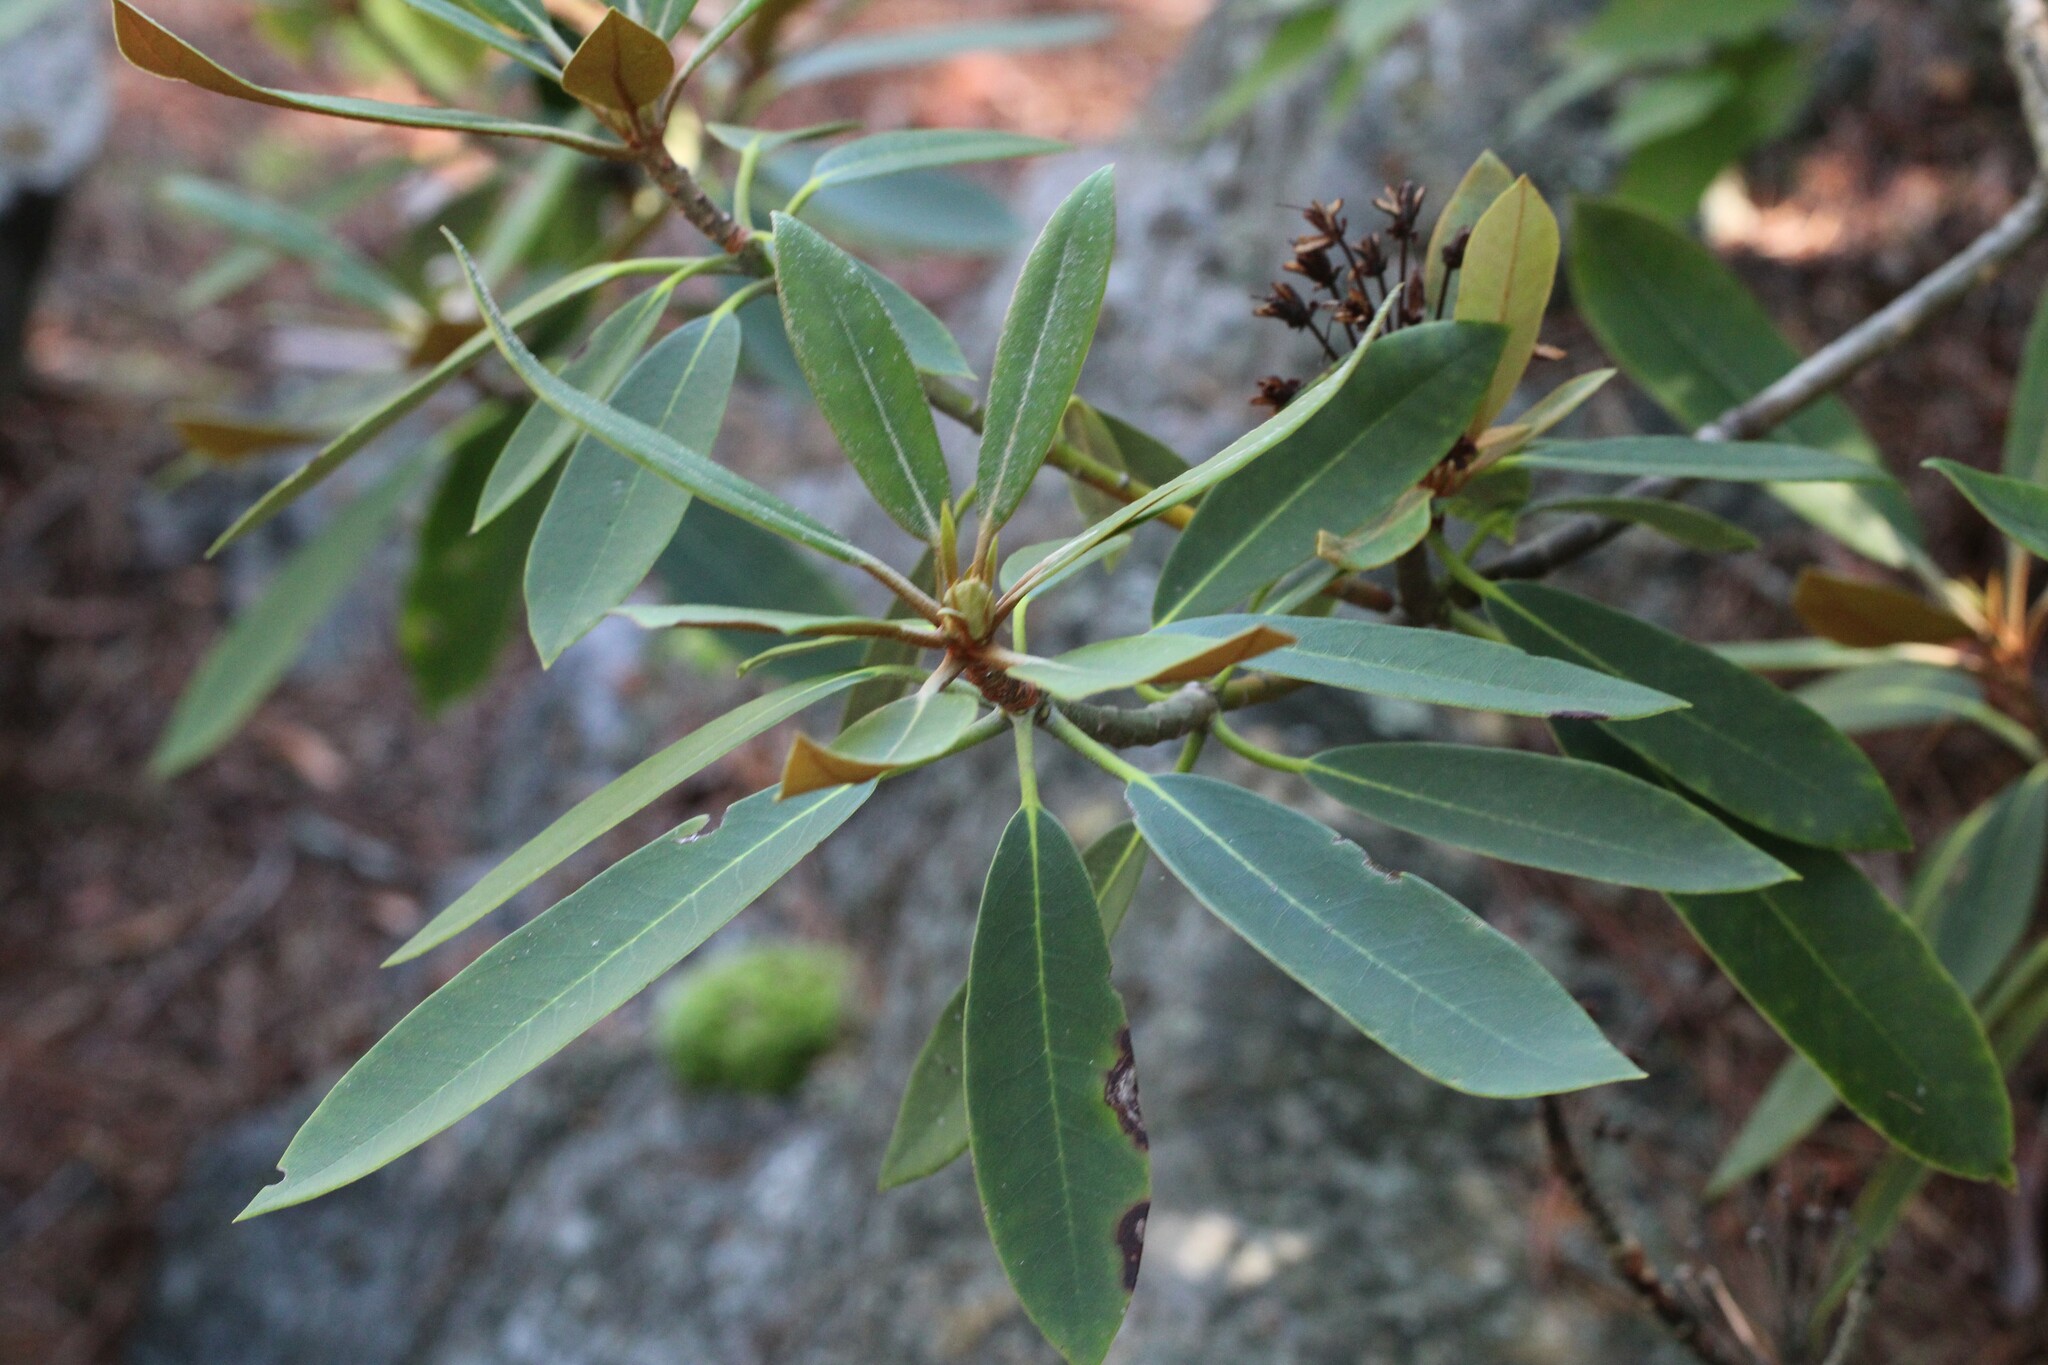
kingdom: Plantae
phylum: Tracheophyta
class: Magnoliopsida
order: Ericales
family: Ericaceae
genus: Rhododendron
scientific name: Rhododendron maximum
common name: Great rhododendron
